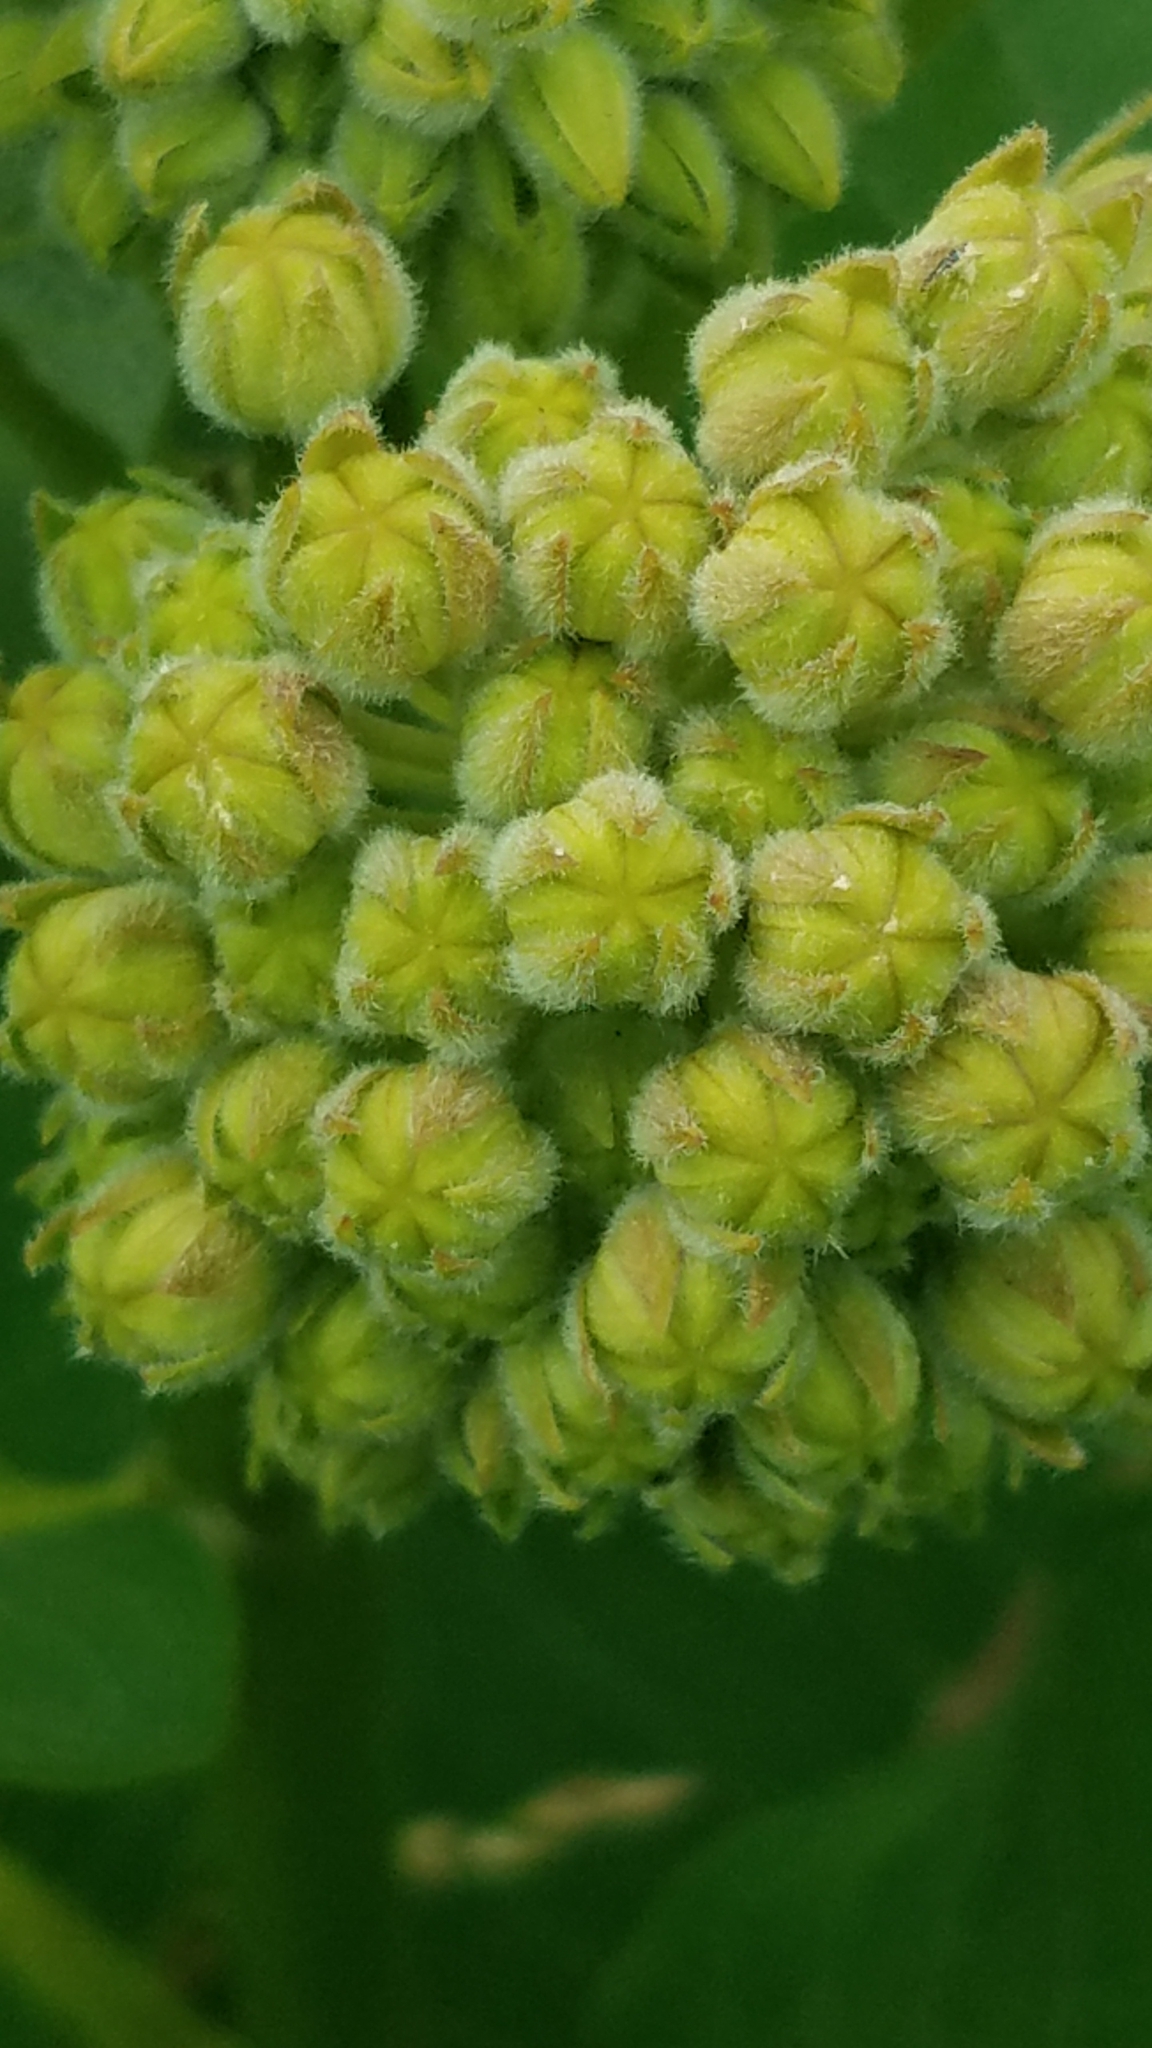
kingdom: Plantae
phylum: Tracheophyta
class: Magnoliopsida
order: Gentianales
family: Apocynaceae
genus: Asclepias
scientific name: Asclepias syriaca
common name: Common milkweed
